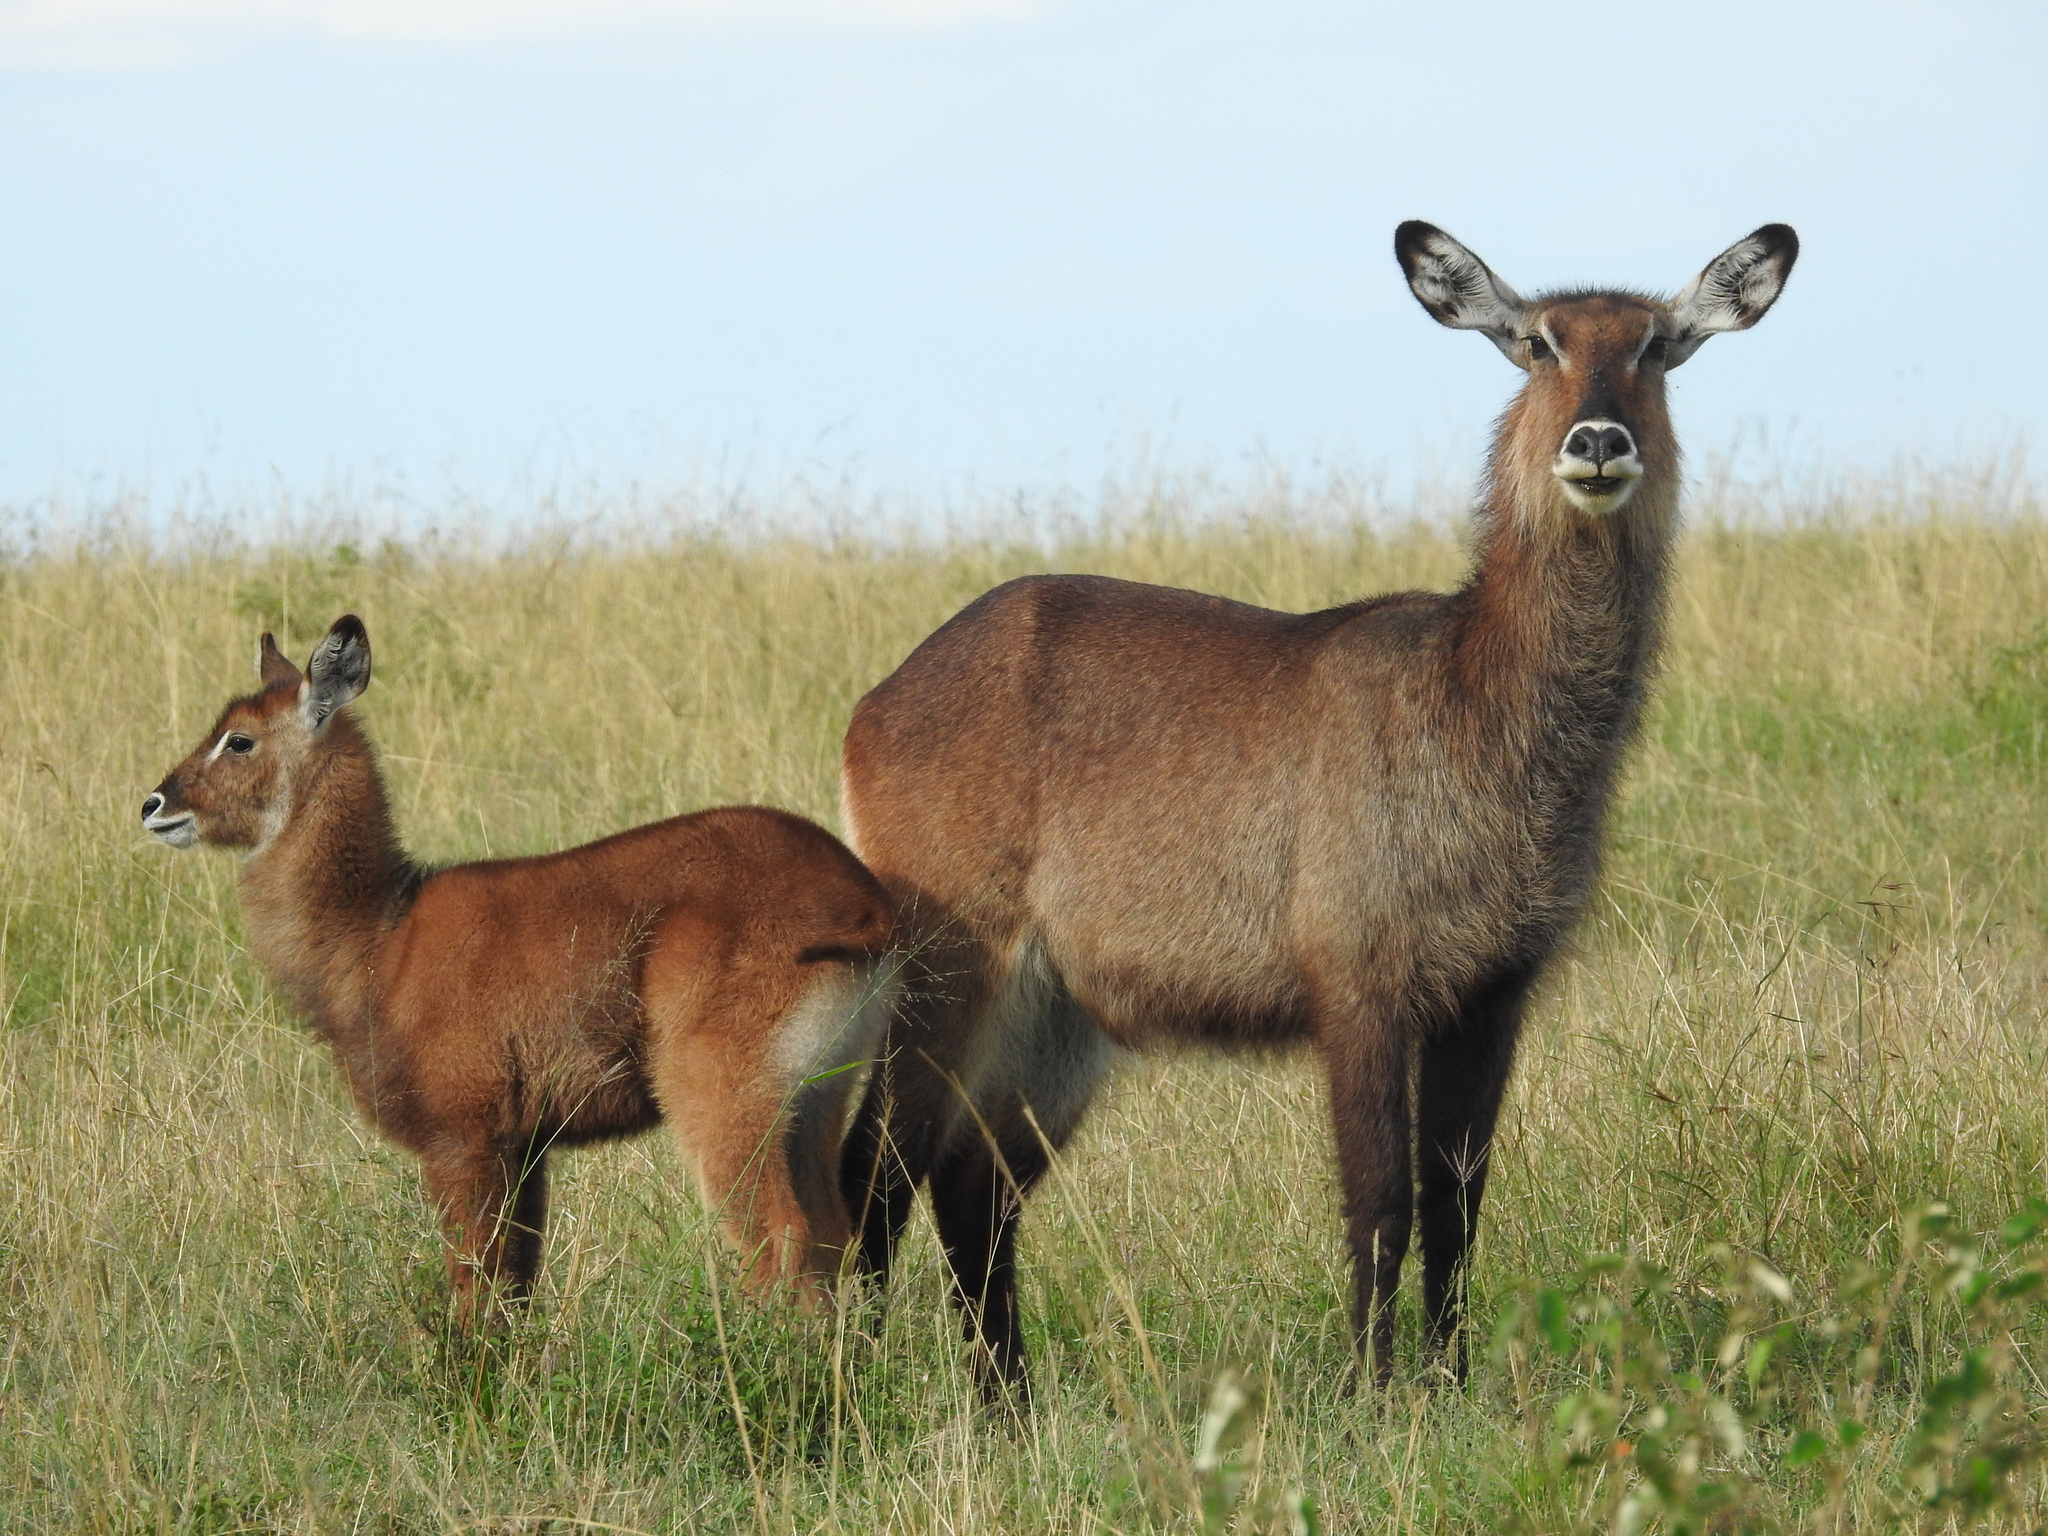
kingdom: Animalia
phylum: Chordata
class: Mammalia
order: Artiodactyla
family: Bovidae
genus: Kobus
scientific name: Kobus ellipsiprymnus
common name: Waterbuck
